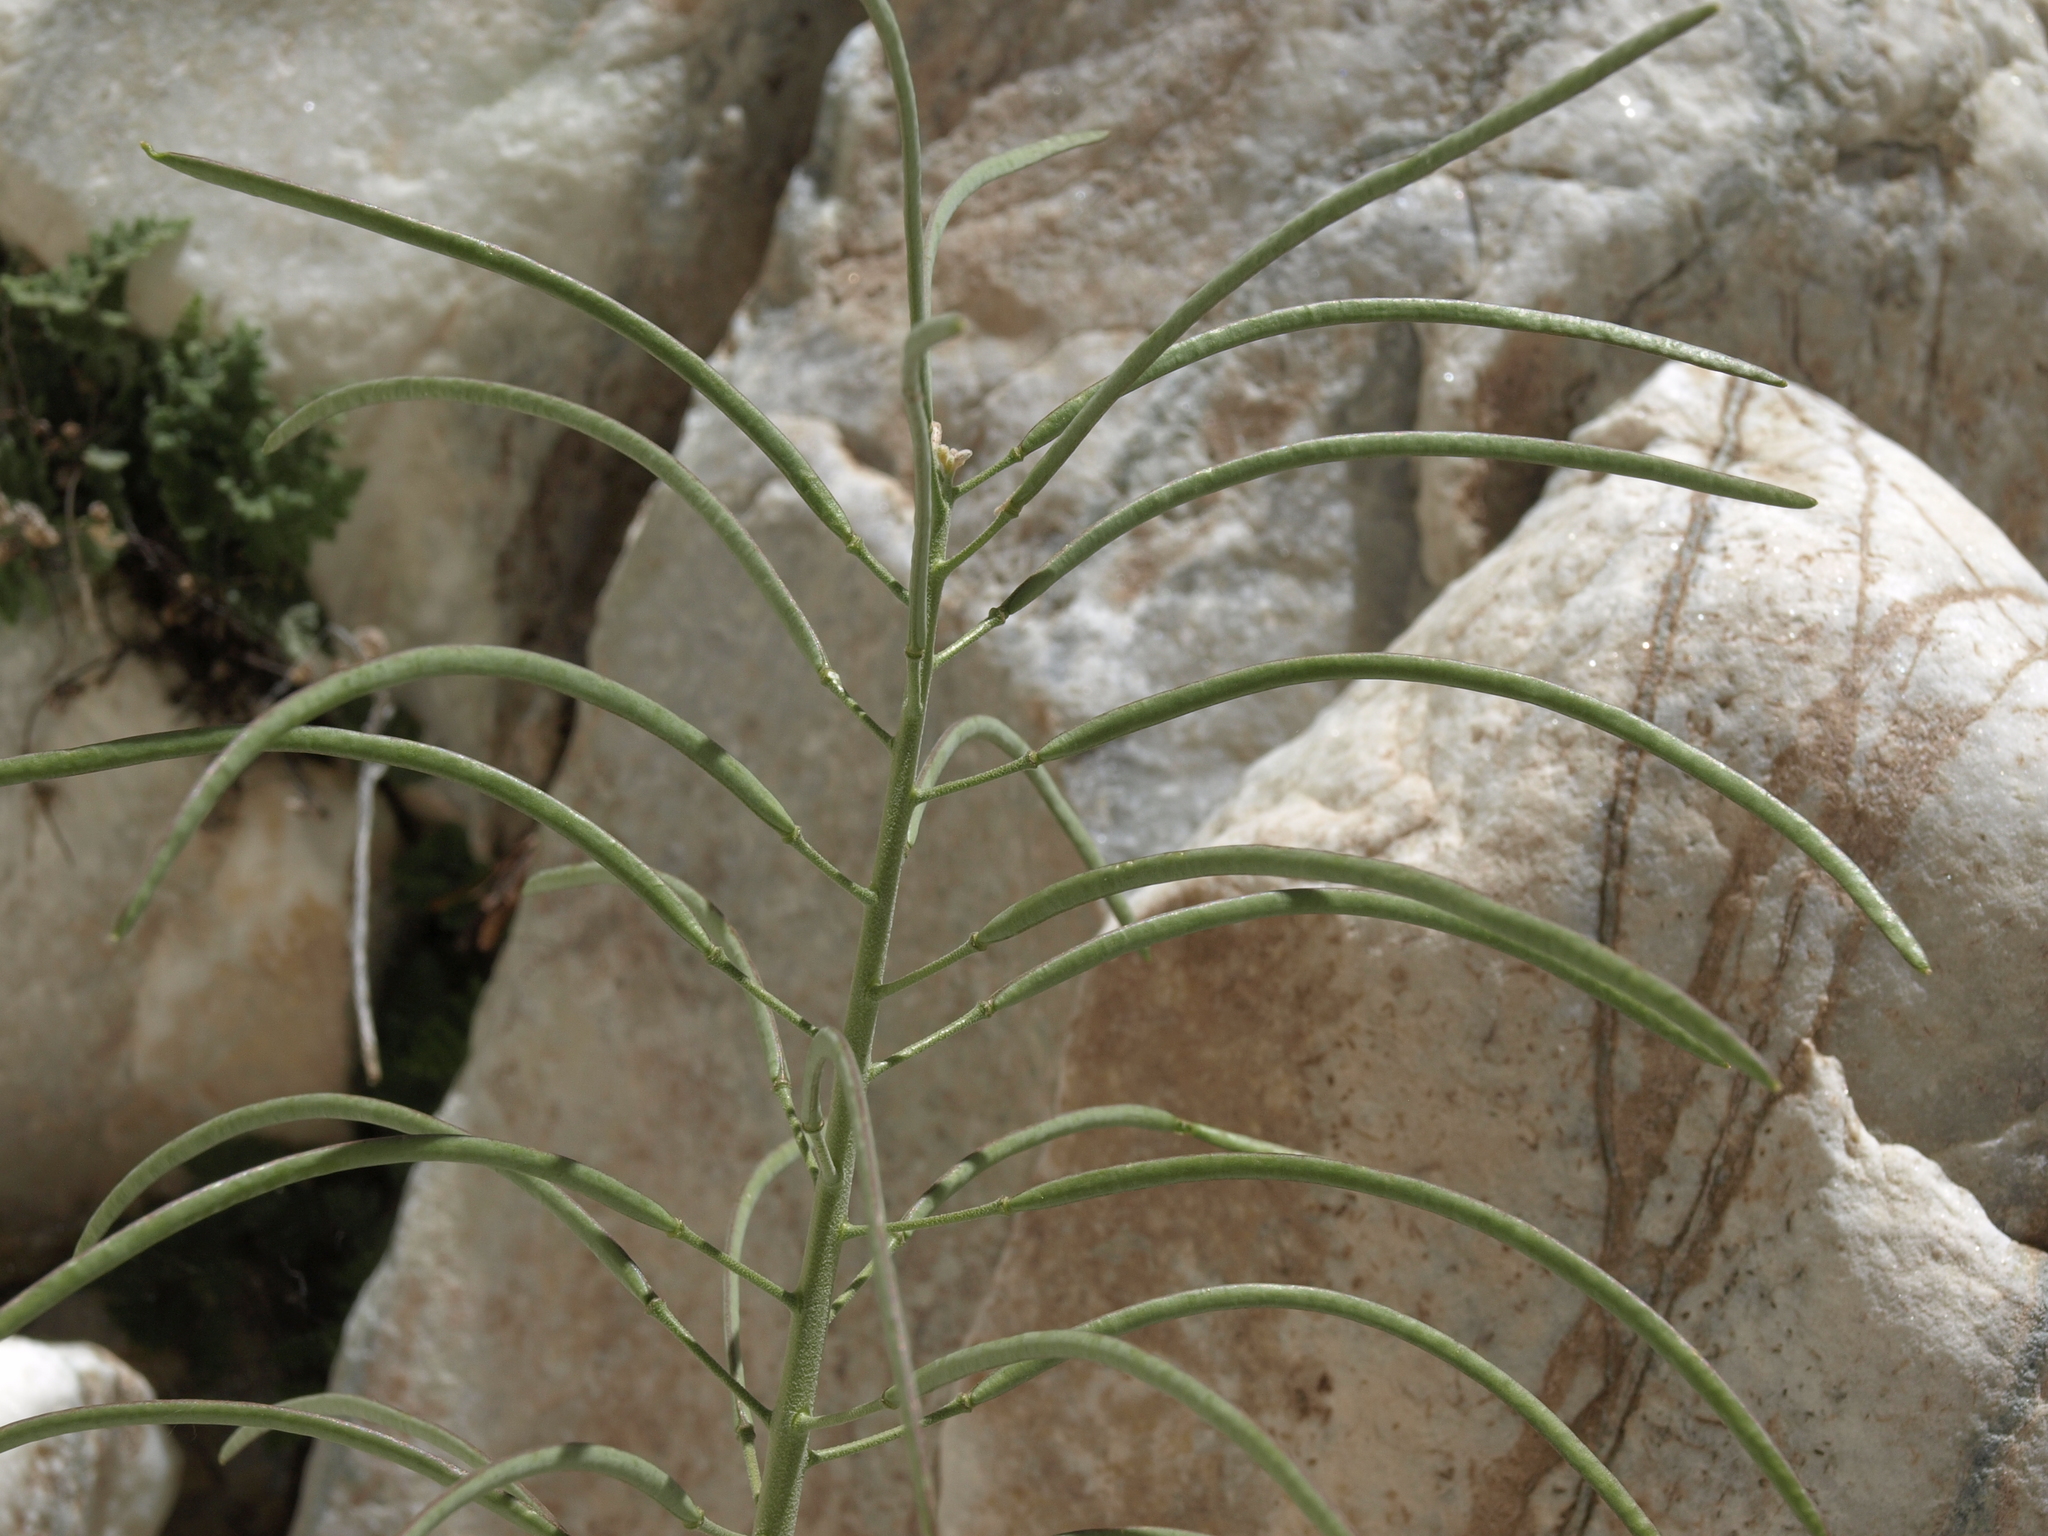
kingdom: Plantae
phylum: Tracheophyta
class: Magnoliopsida
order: Brassicales
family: Brassicaceae
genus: Boechera
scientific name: Boechera shockleyi
